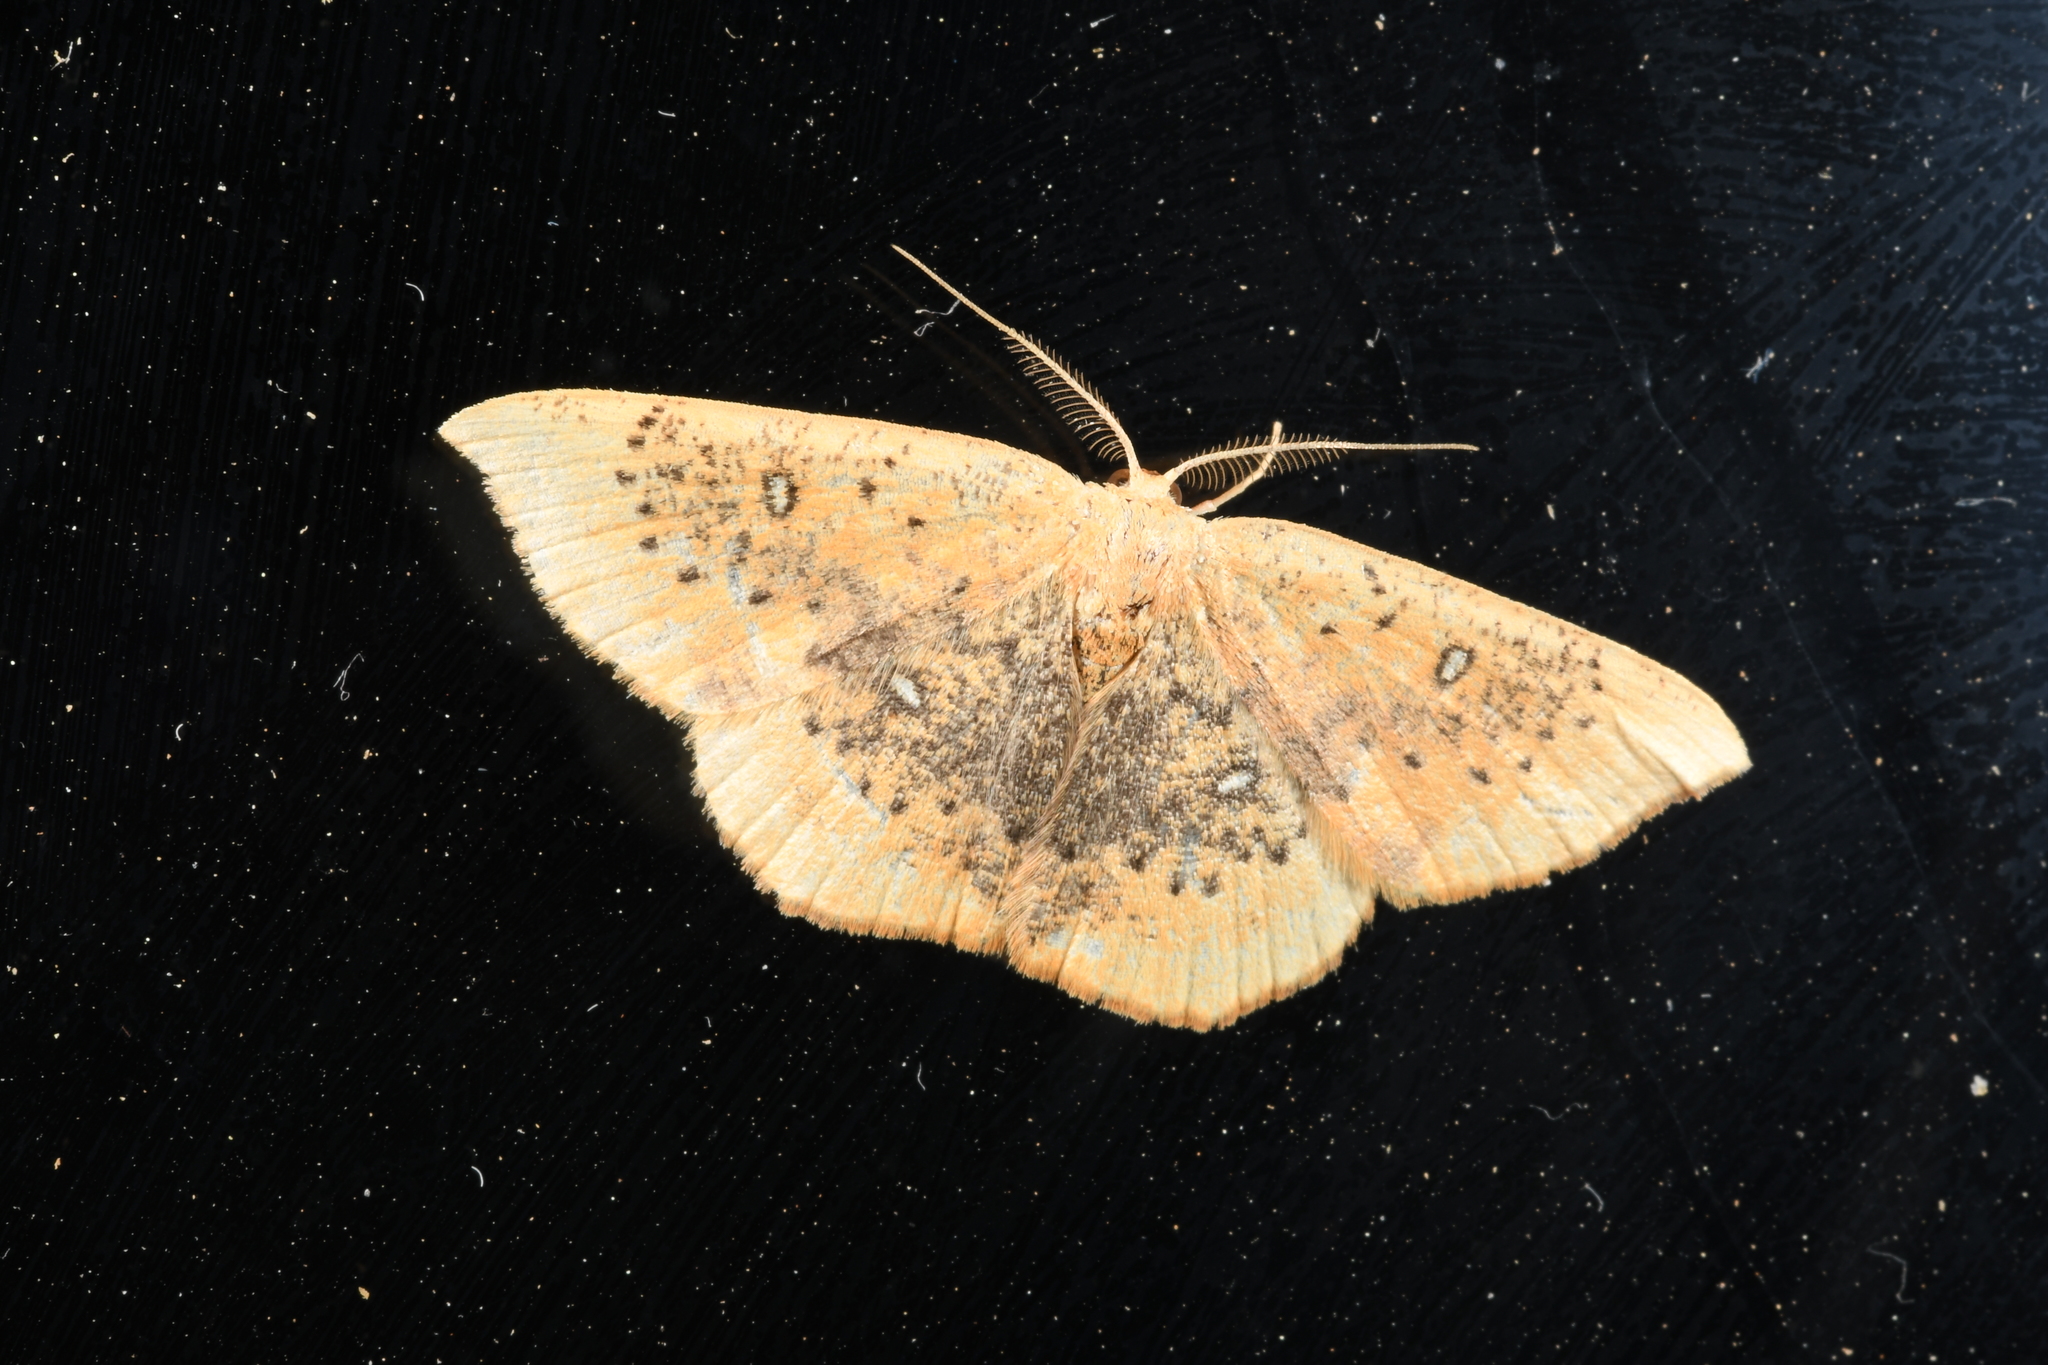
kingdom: Animalia
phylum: Arthropoda
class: Insecta
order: Lepidoptera
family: Geometridae
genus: Cyclophora
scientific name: Cyclophora lennigiaria
